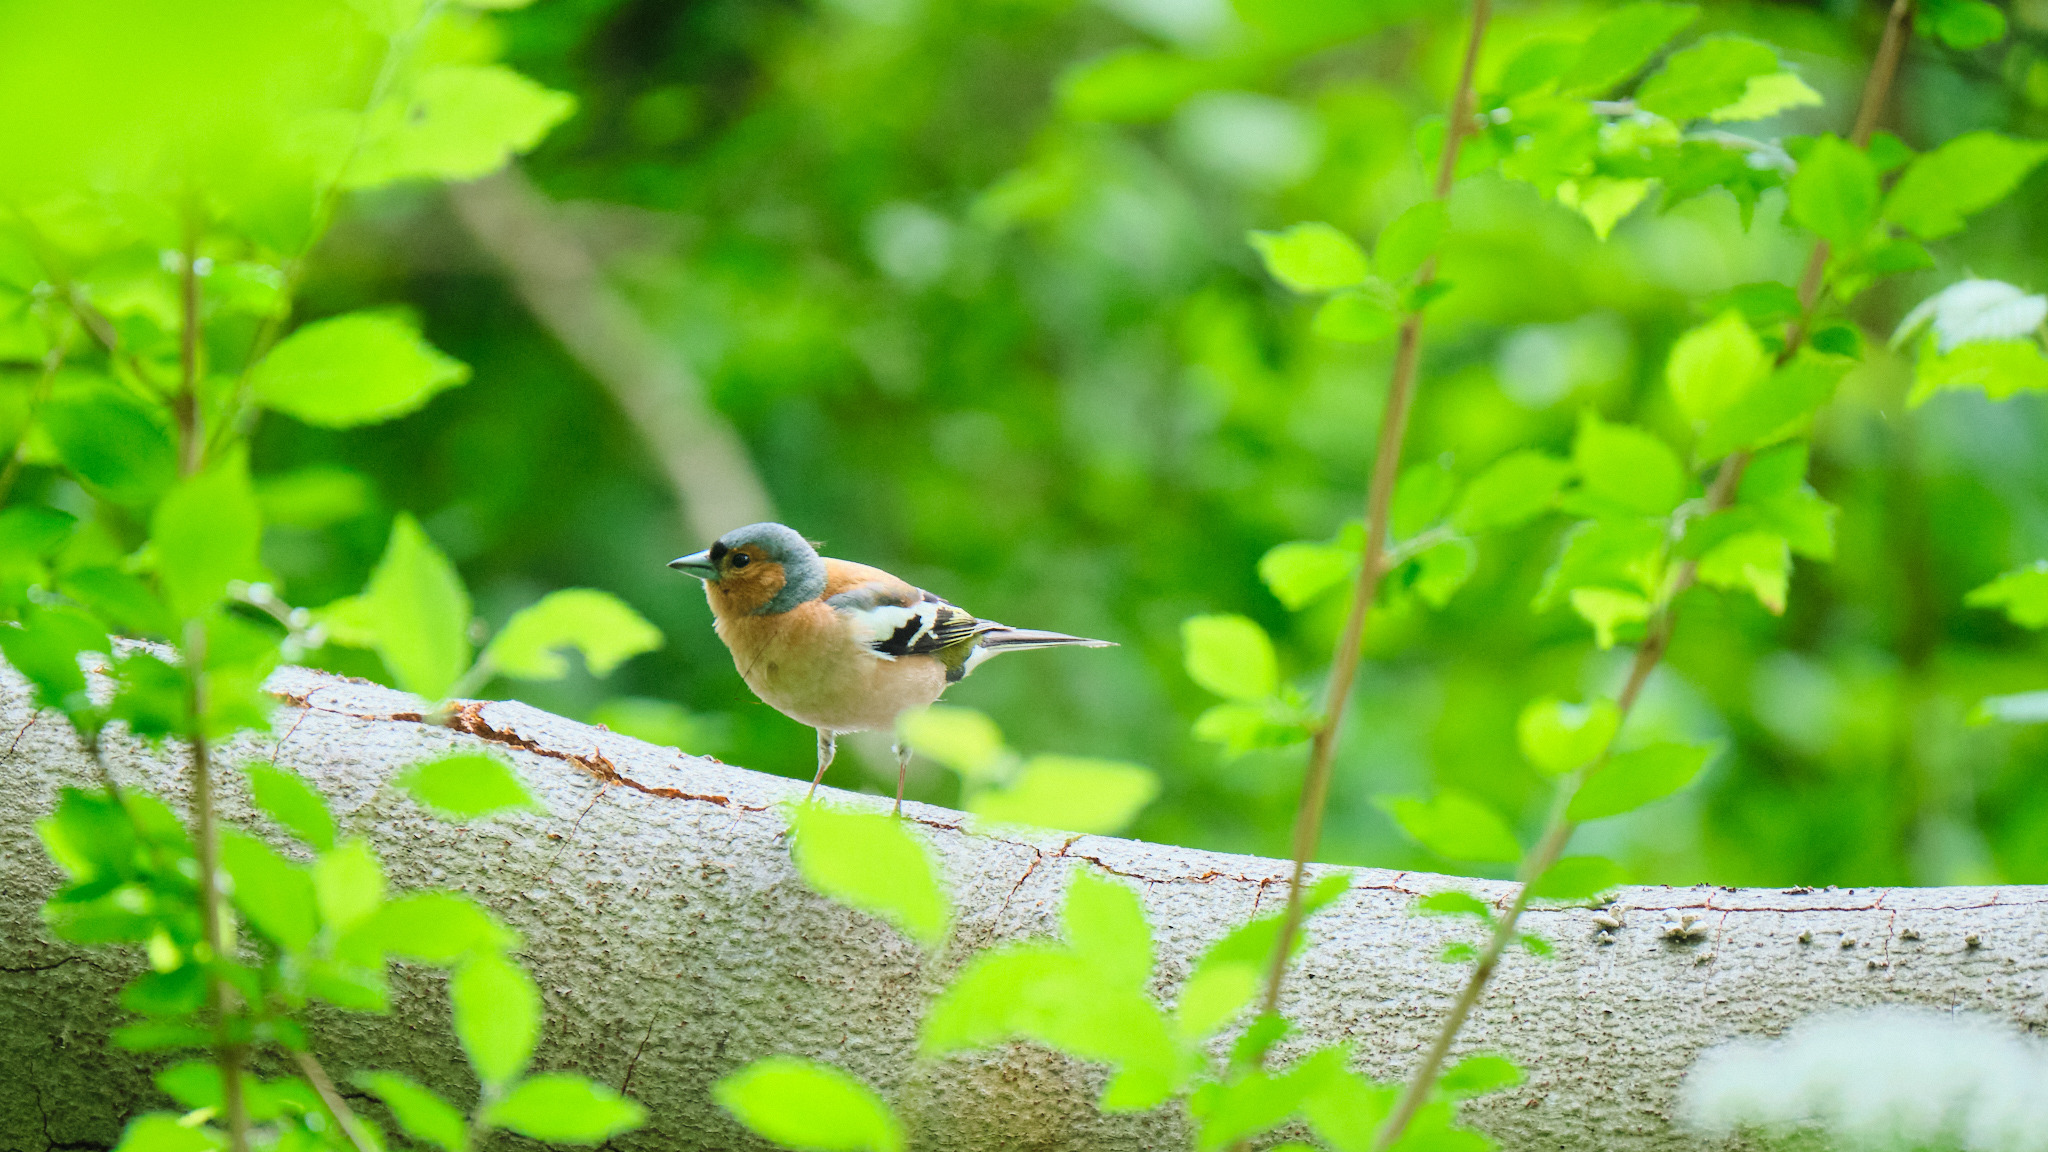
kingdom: Animalia
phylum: Chordata
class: Aves
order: Passeriformes
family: Fringillidae
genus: Fringilla
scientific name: Fringilla coelebs
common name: Common chaffinch
